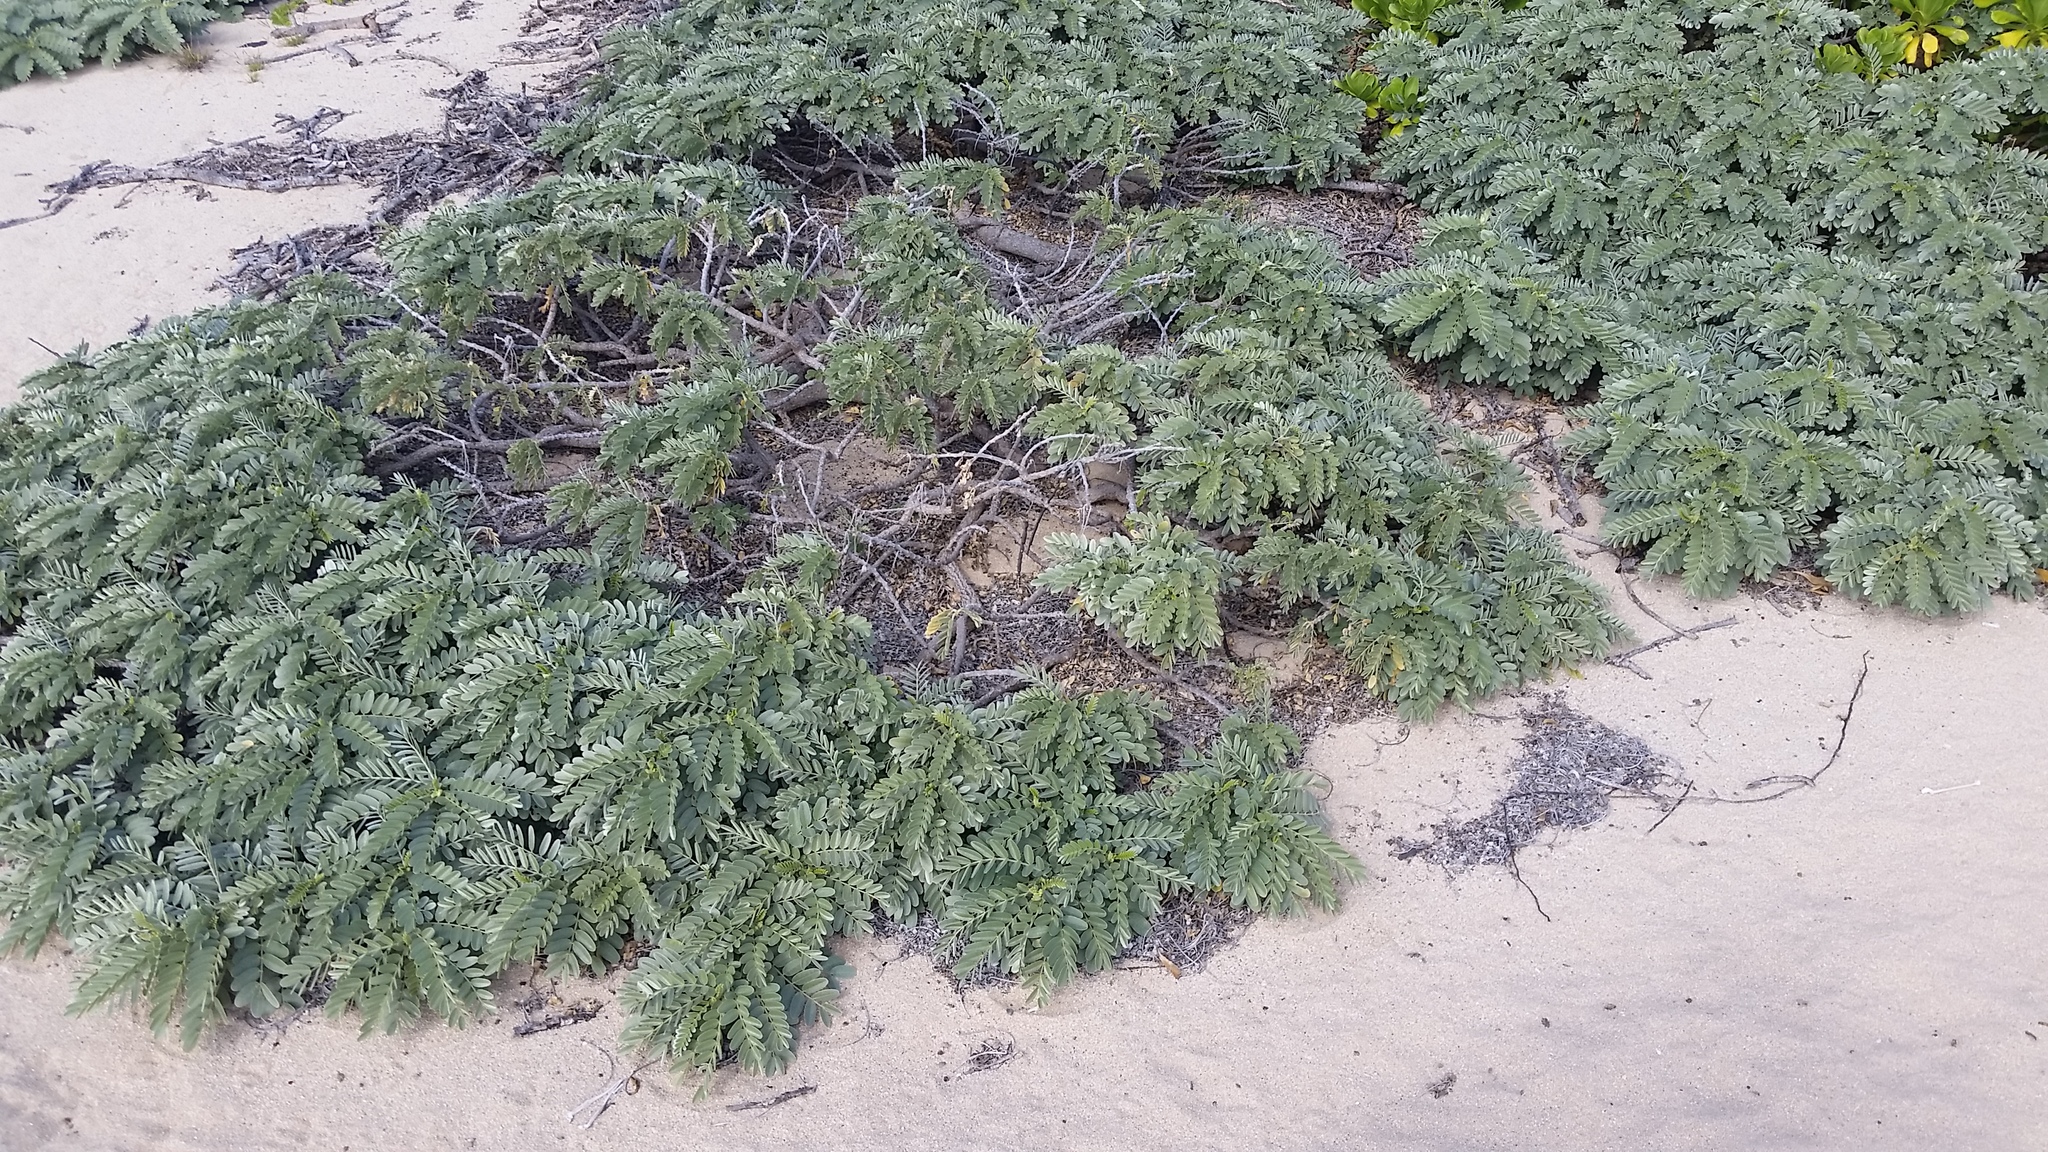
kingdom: Plantae
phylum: Tracheophyta
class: Magnoliopsida
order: Fabales
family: Fabaceae
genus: Sesbania
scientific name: Sesbania tomentosa
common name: `ohai
